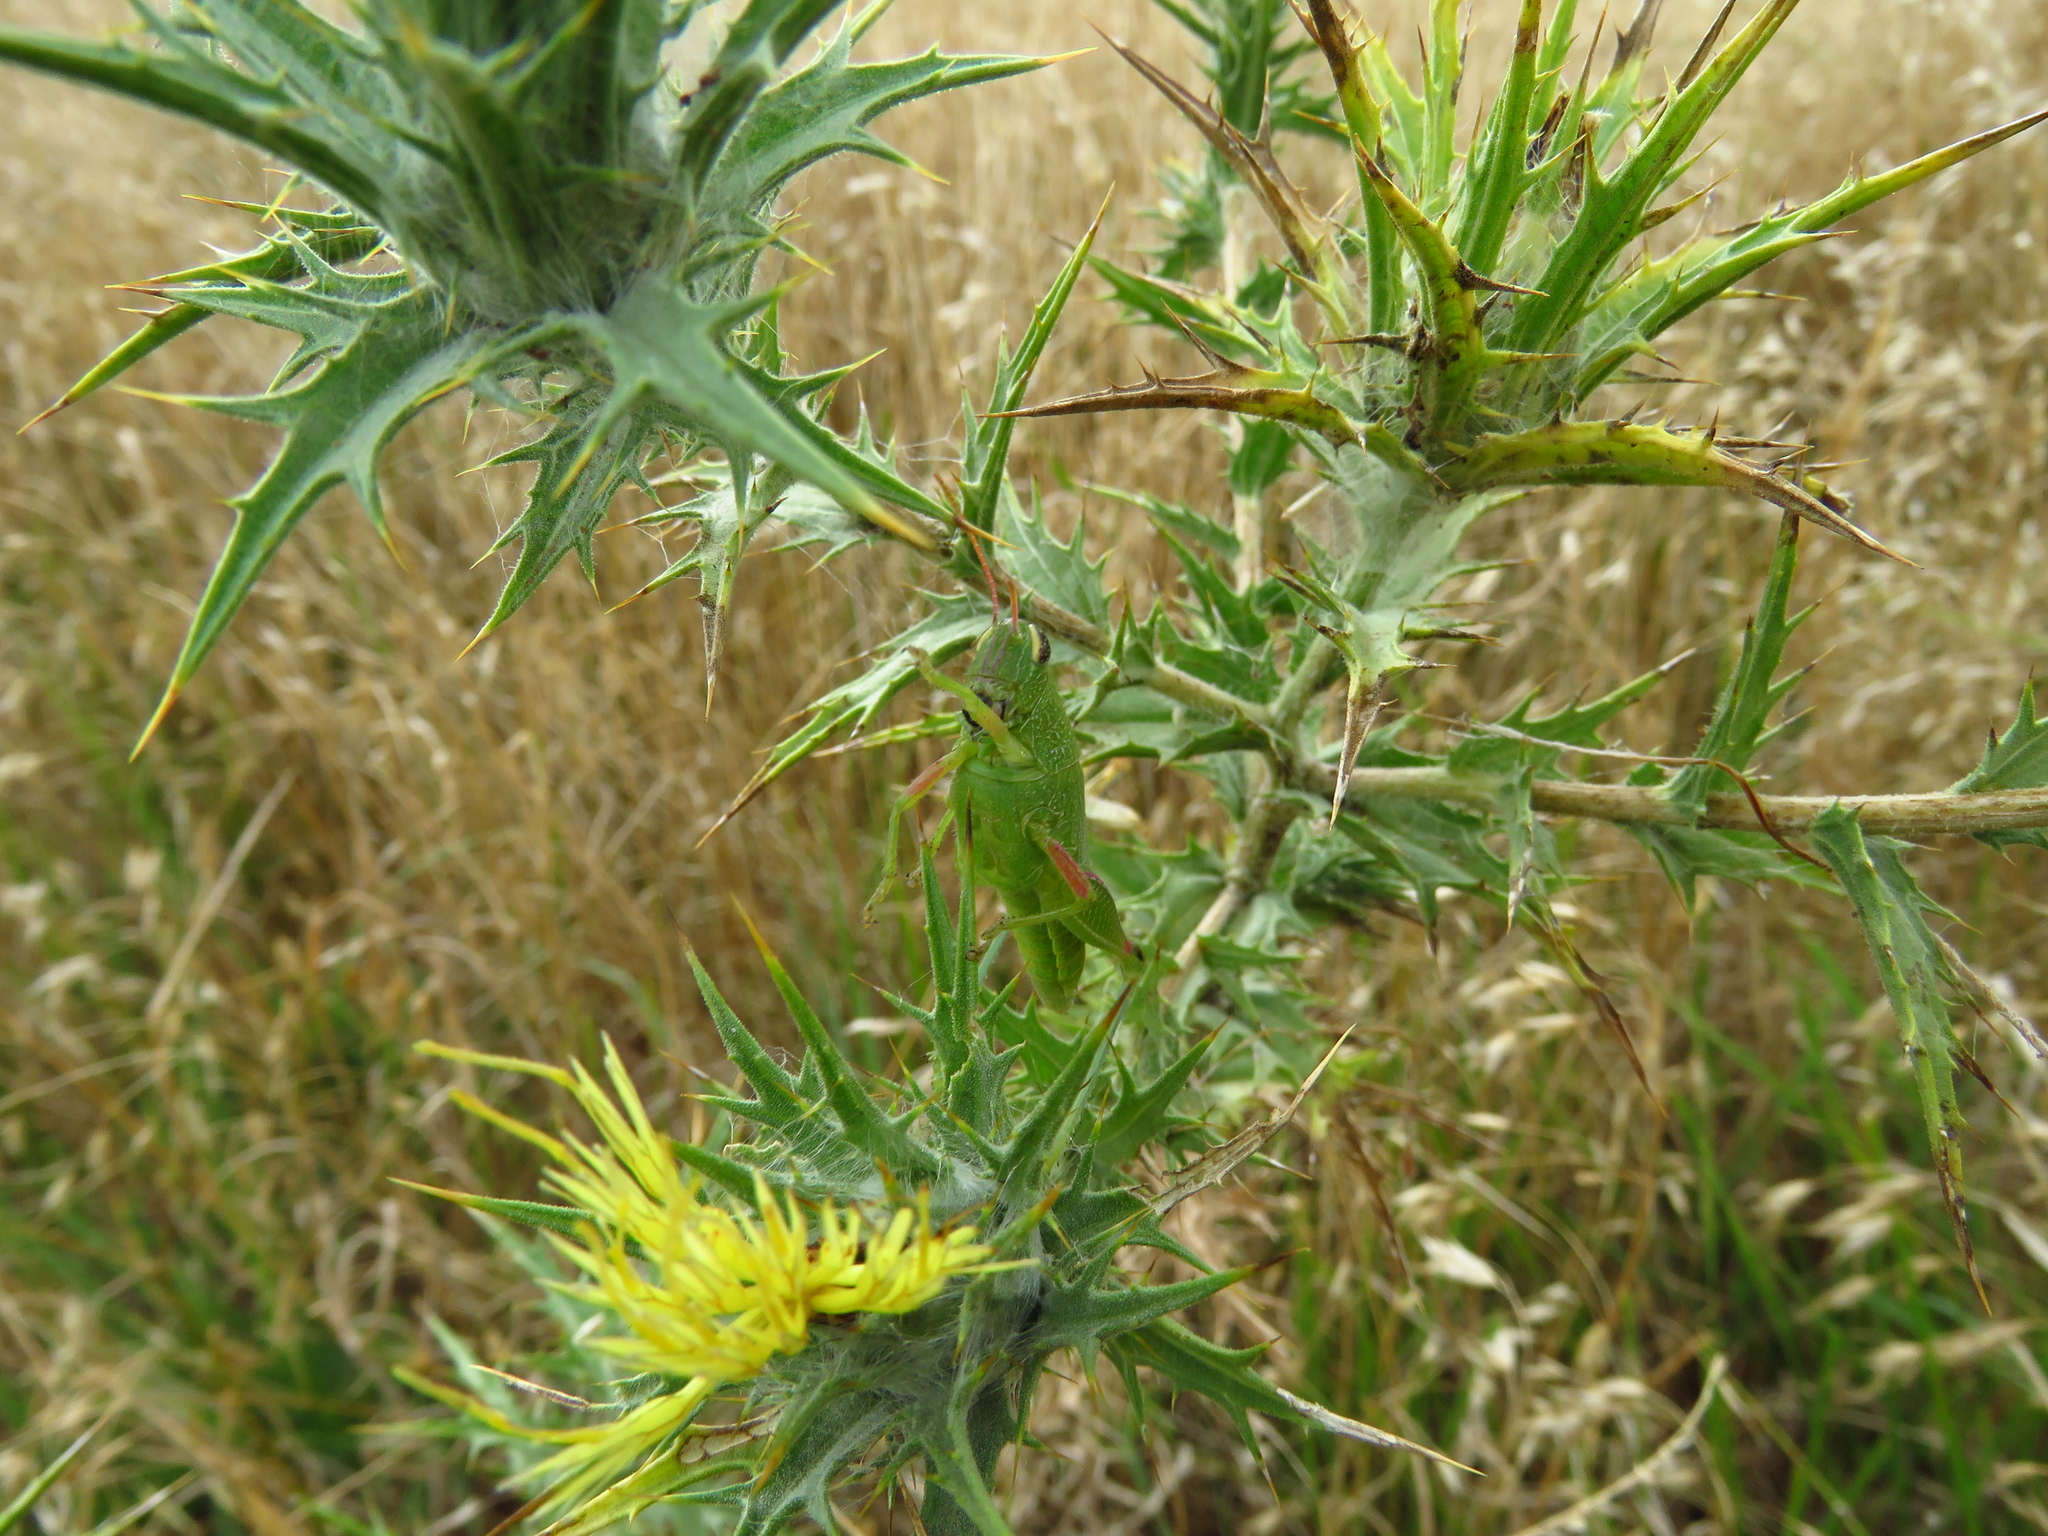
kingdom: Plantae
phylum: Tracheophyta
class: Magnoliopsida
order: Asterales
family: Asteraceae
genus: Carthamus
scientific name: Carthamus lanatus
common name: Downy safflower
